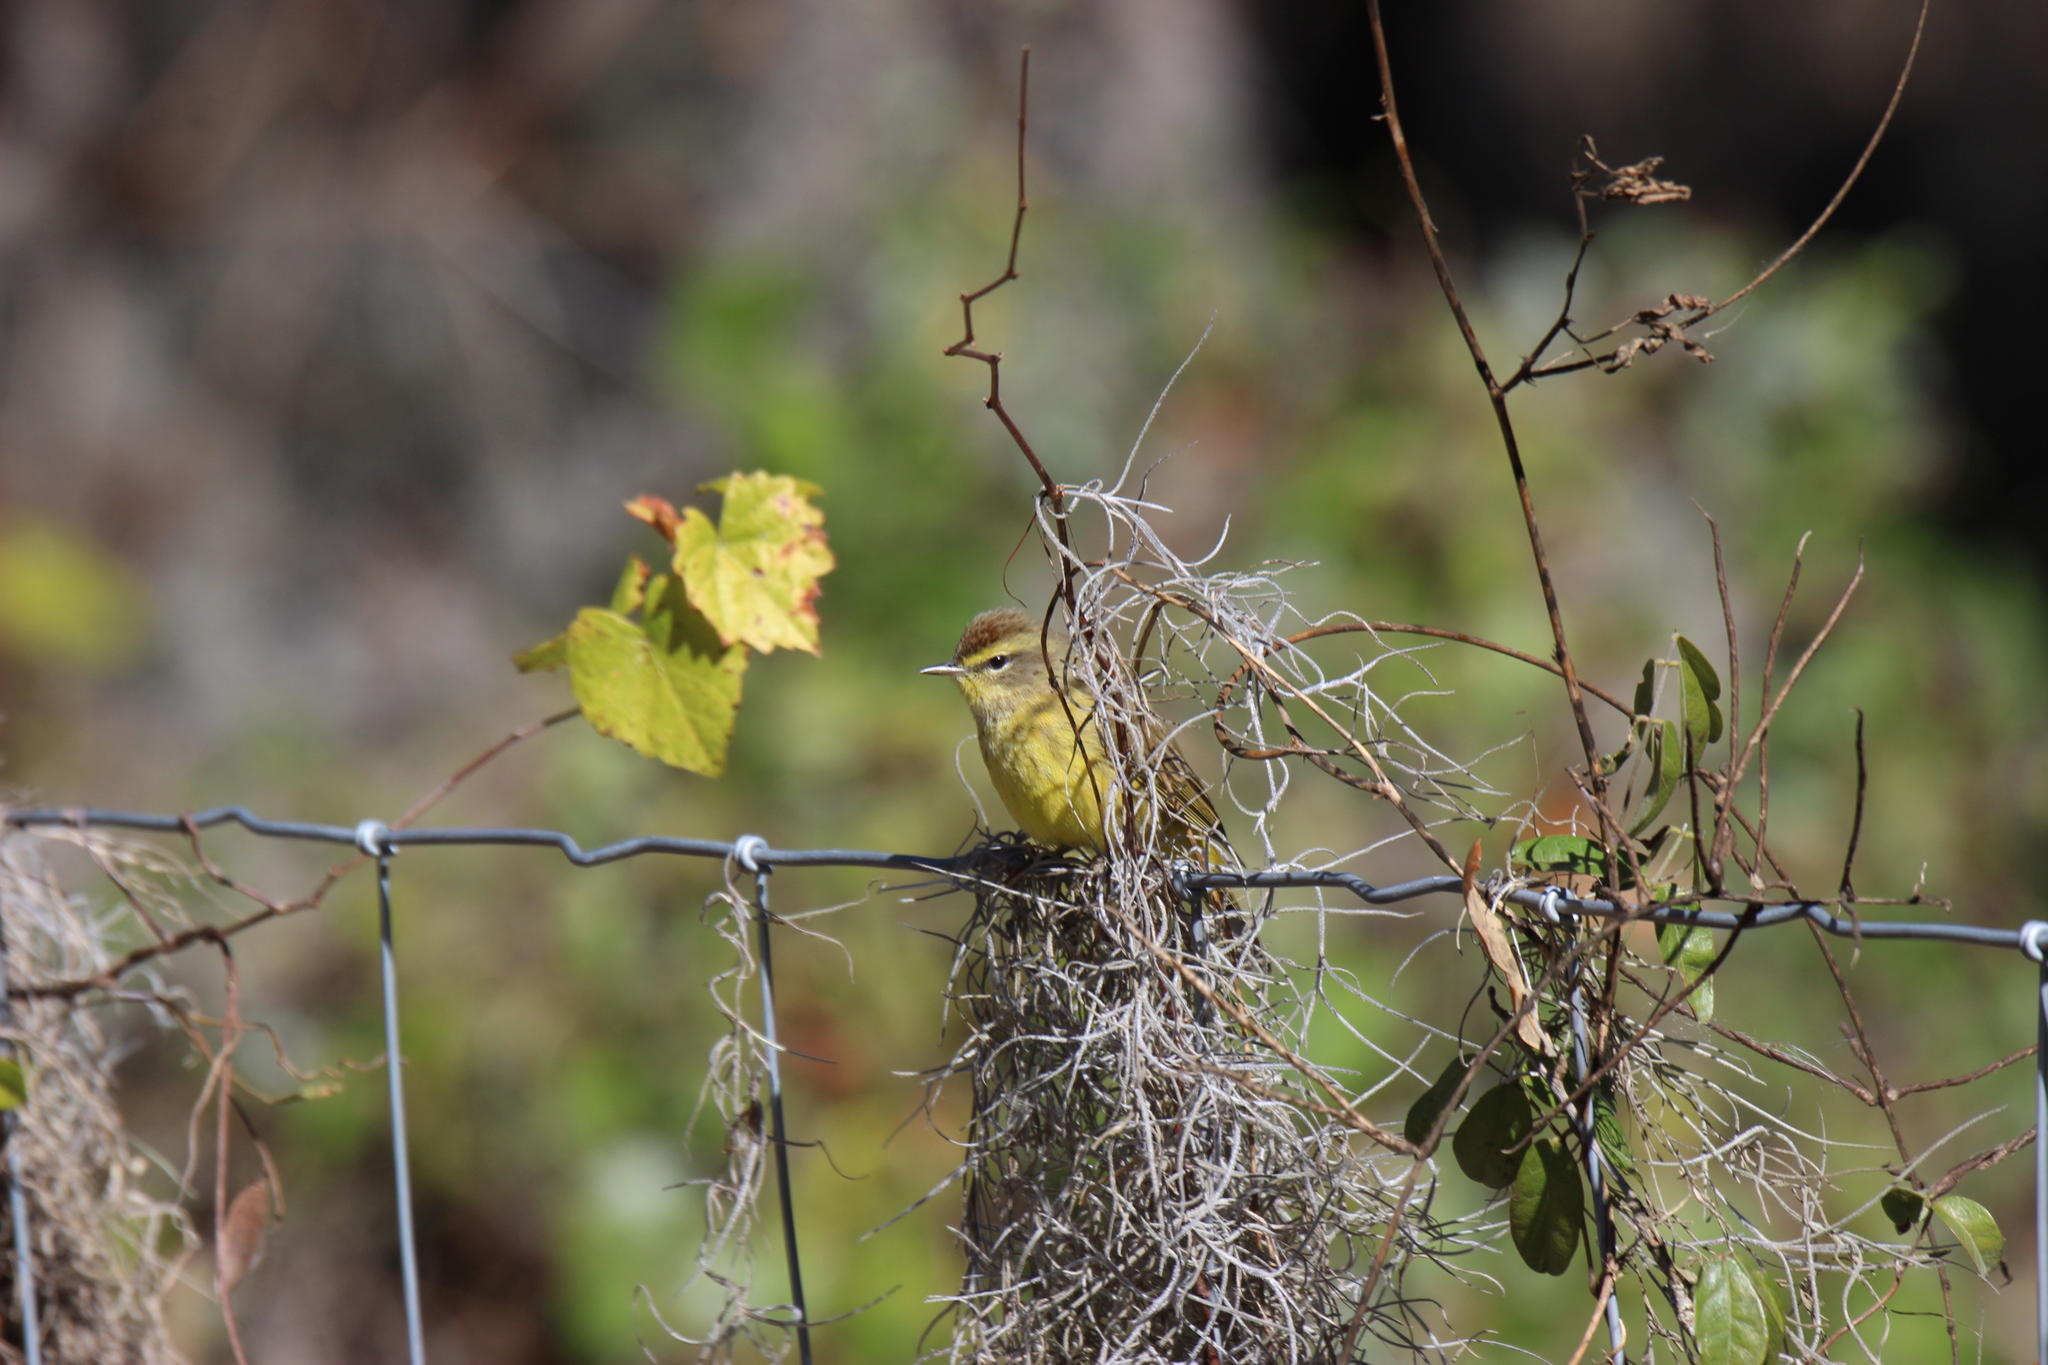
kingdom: Animalia
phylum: Chordata
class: Aves
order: Passeriformes
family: Parulidae
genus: Setophaga
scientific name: Setophaga palmarum
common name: Palm warbler
